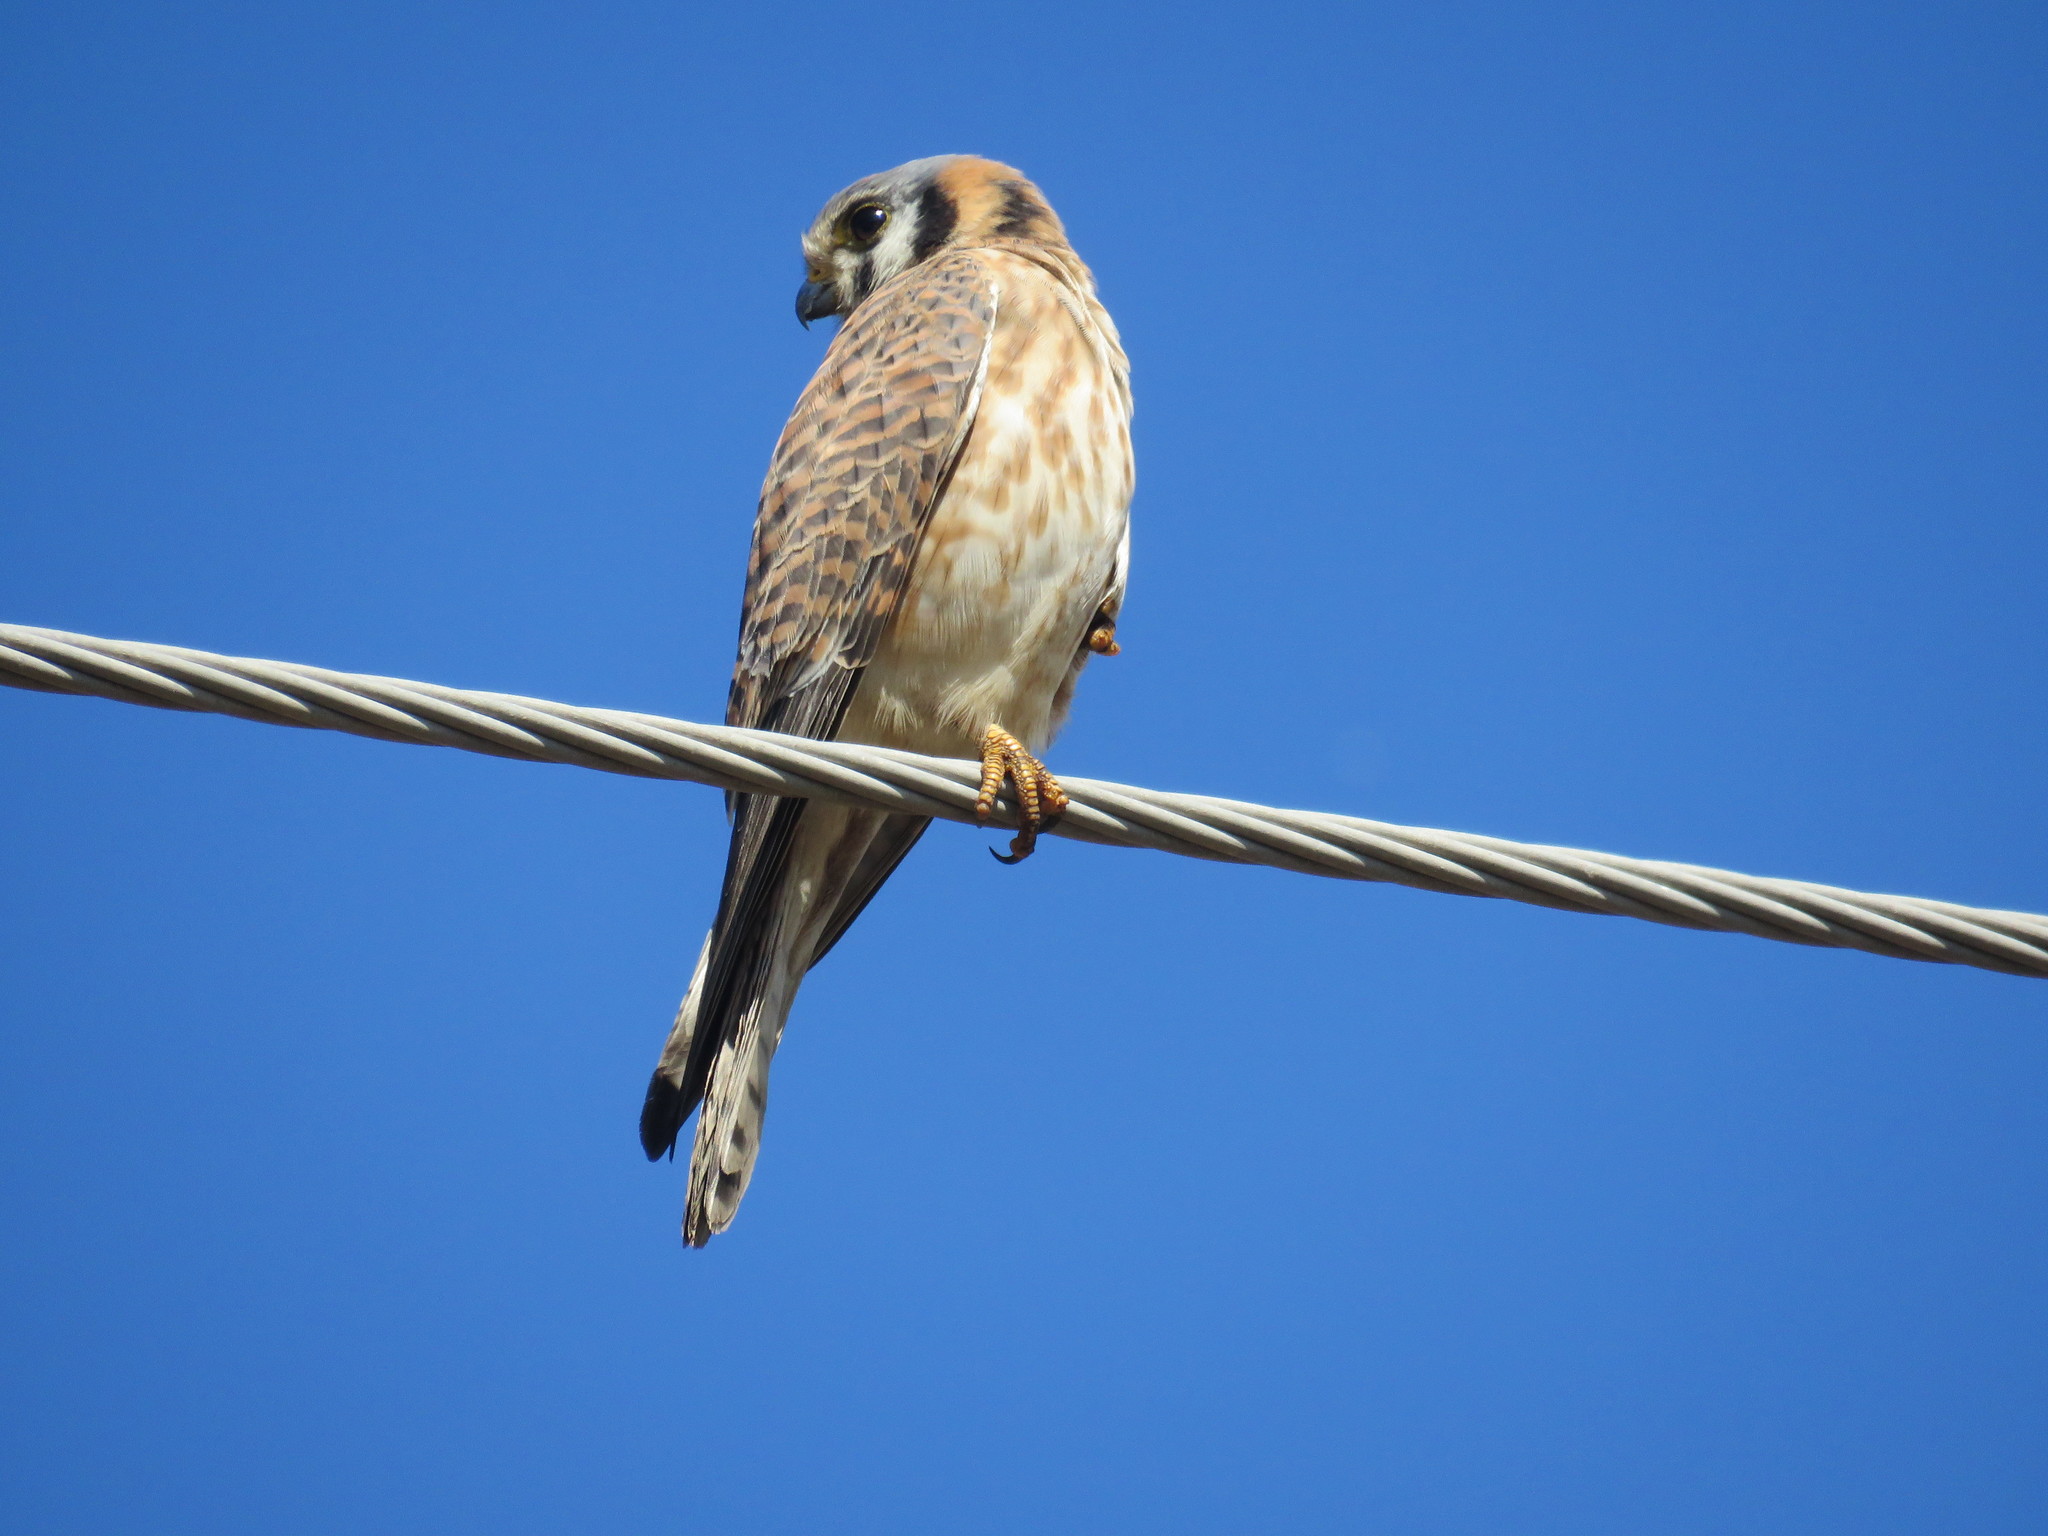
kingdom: Animalia
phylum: Chordata
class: Aves
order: Falconiformes
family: Falconidae
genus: Falco
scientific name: Falco sparverius
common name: American kestrel
